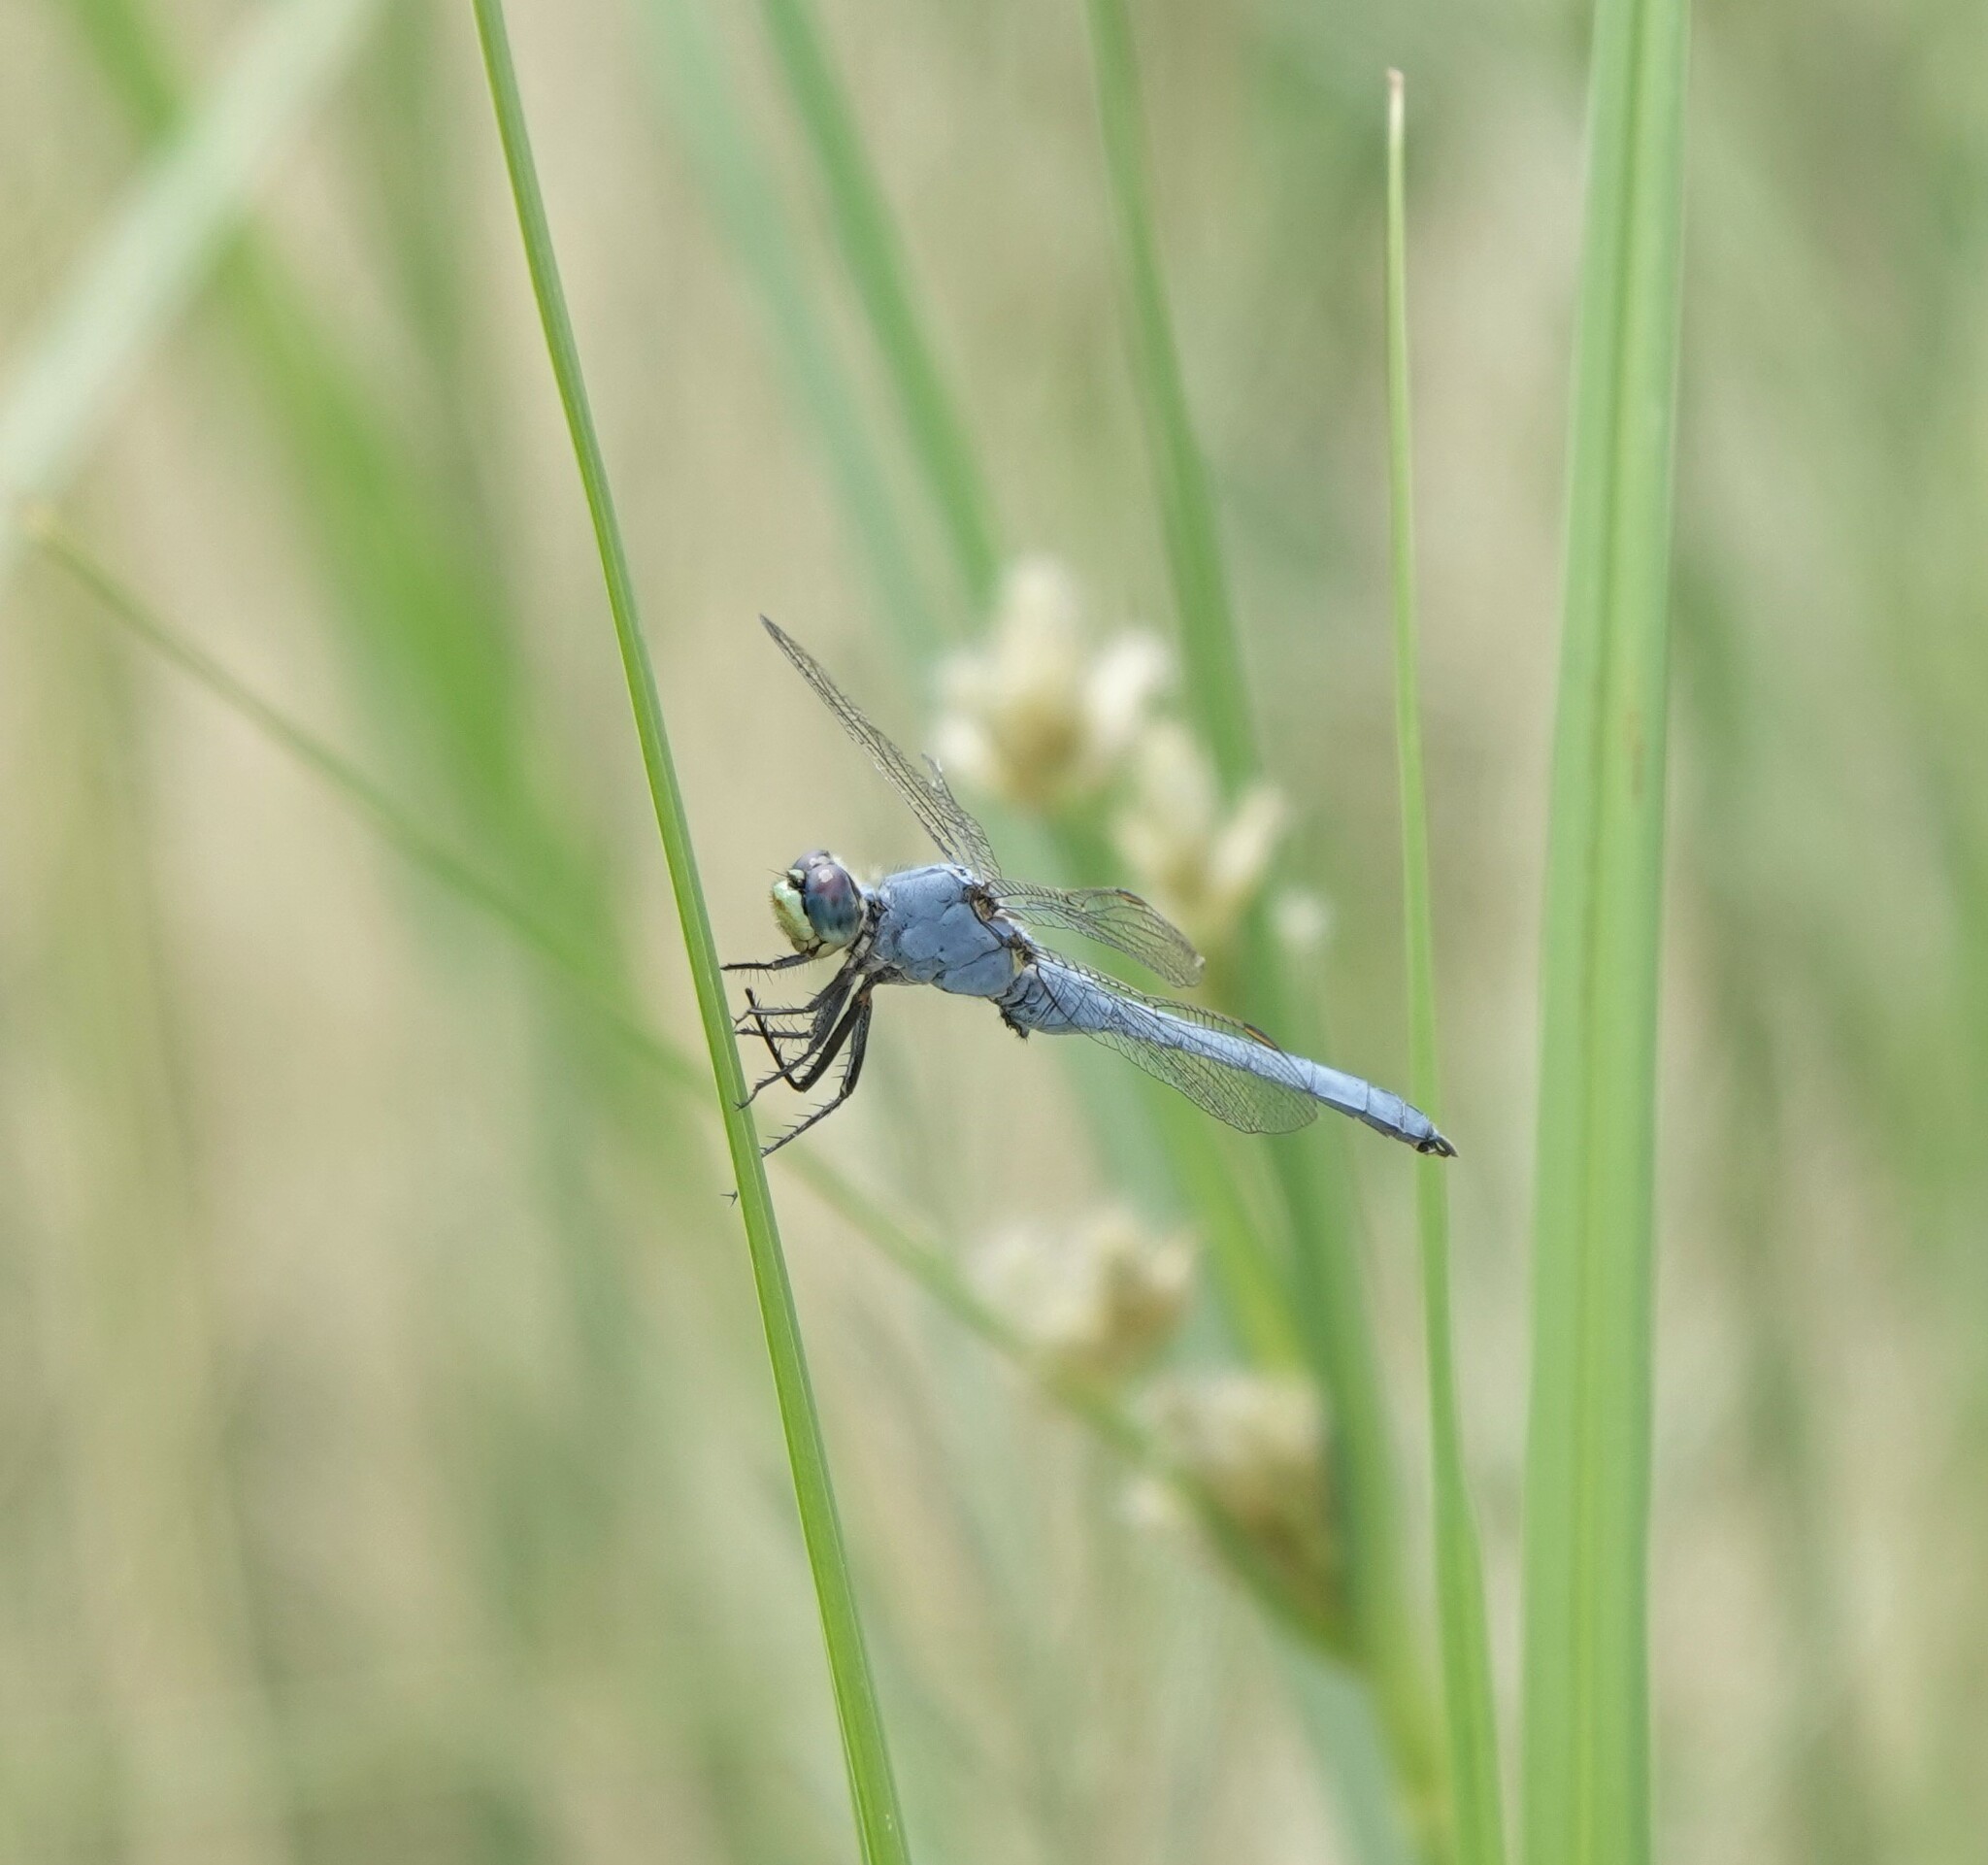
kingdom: Animalia
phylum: Arthropoda
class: Insecta
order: Odonata
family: Libellulidae
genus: Erythemis
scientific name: Erythemis collocata
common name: Western pondhawk
